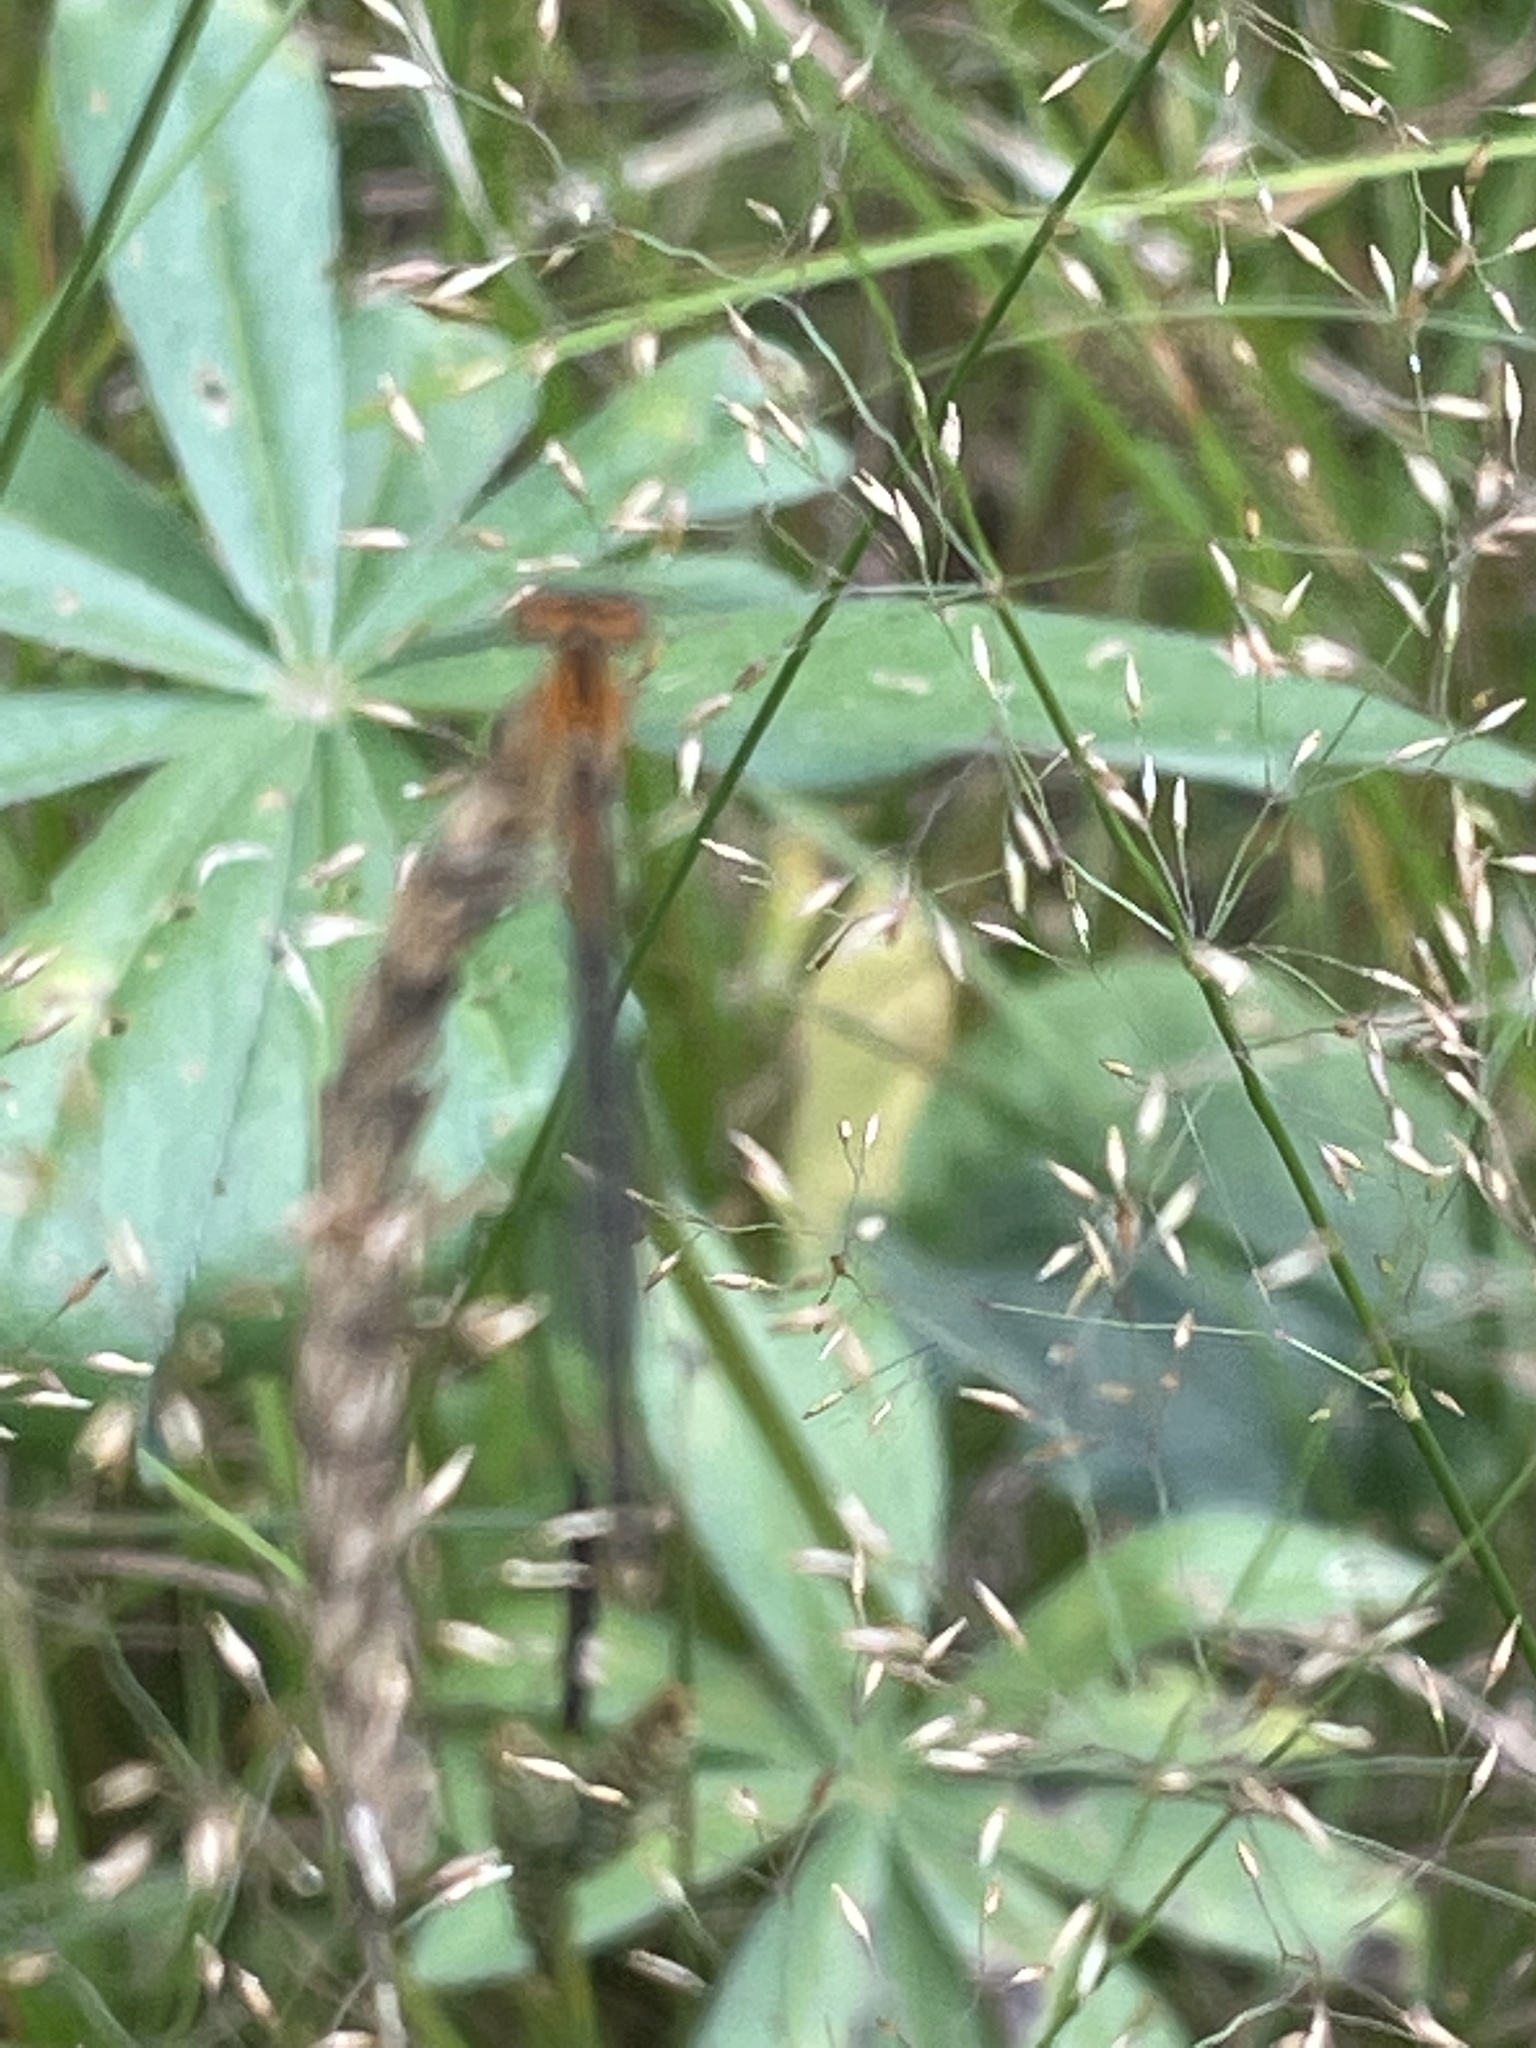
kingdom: Animalia
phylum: Arthropoda
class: Insecta
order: Odonata
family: Coenagrionidae
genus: Ischnura
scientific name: Ischnura verticalis
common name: Eastern forktail
